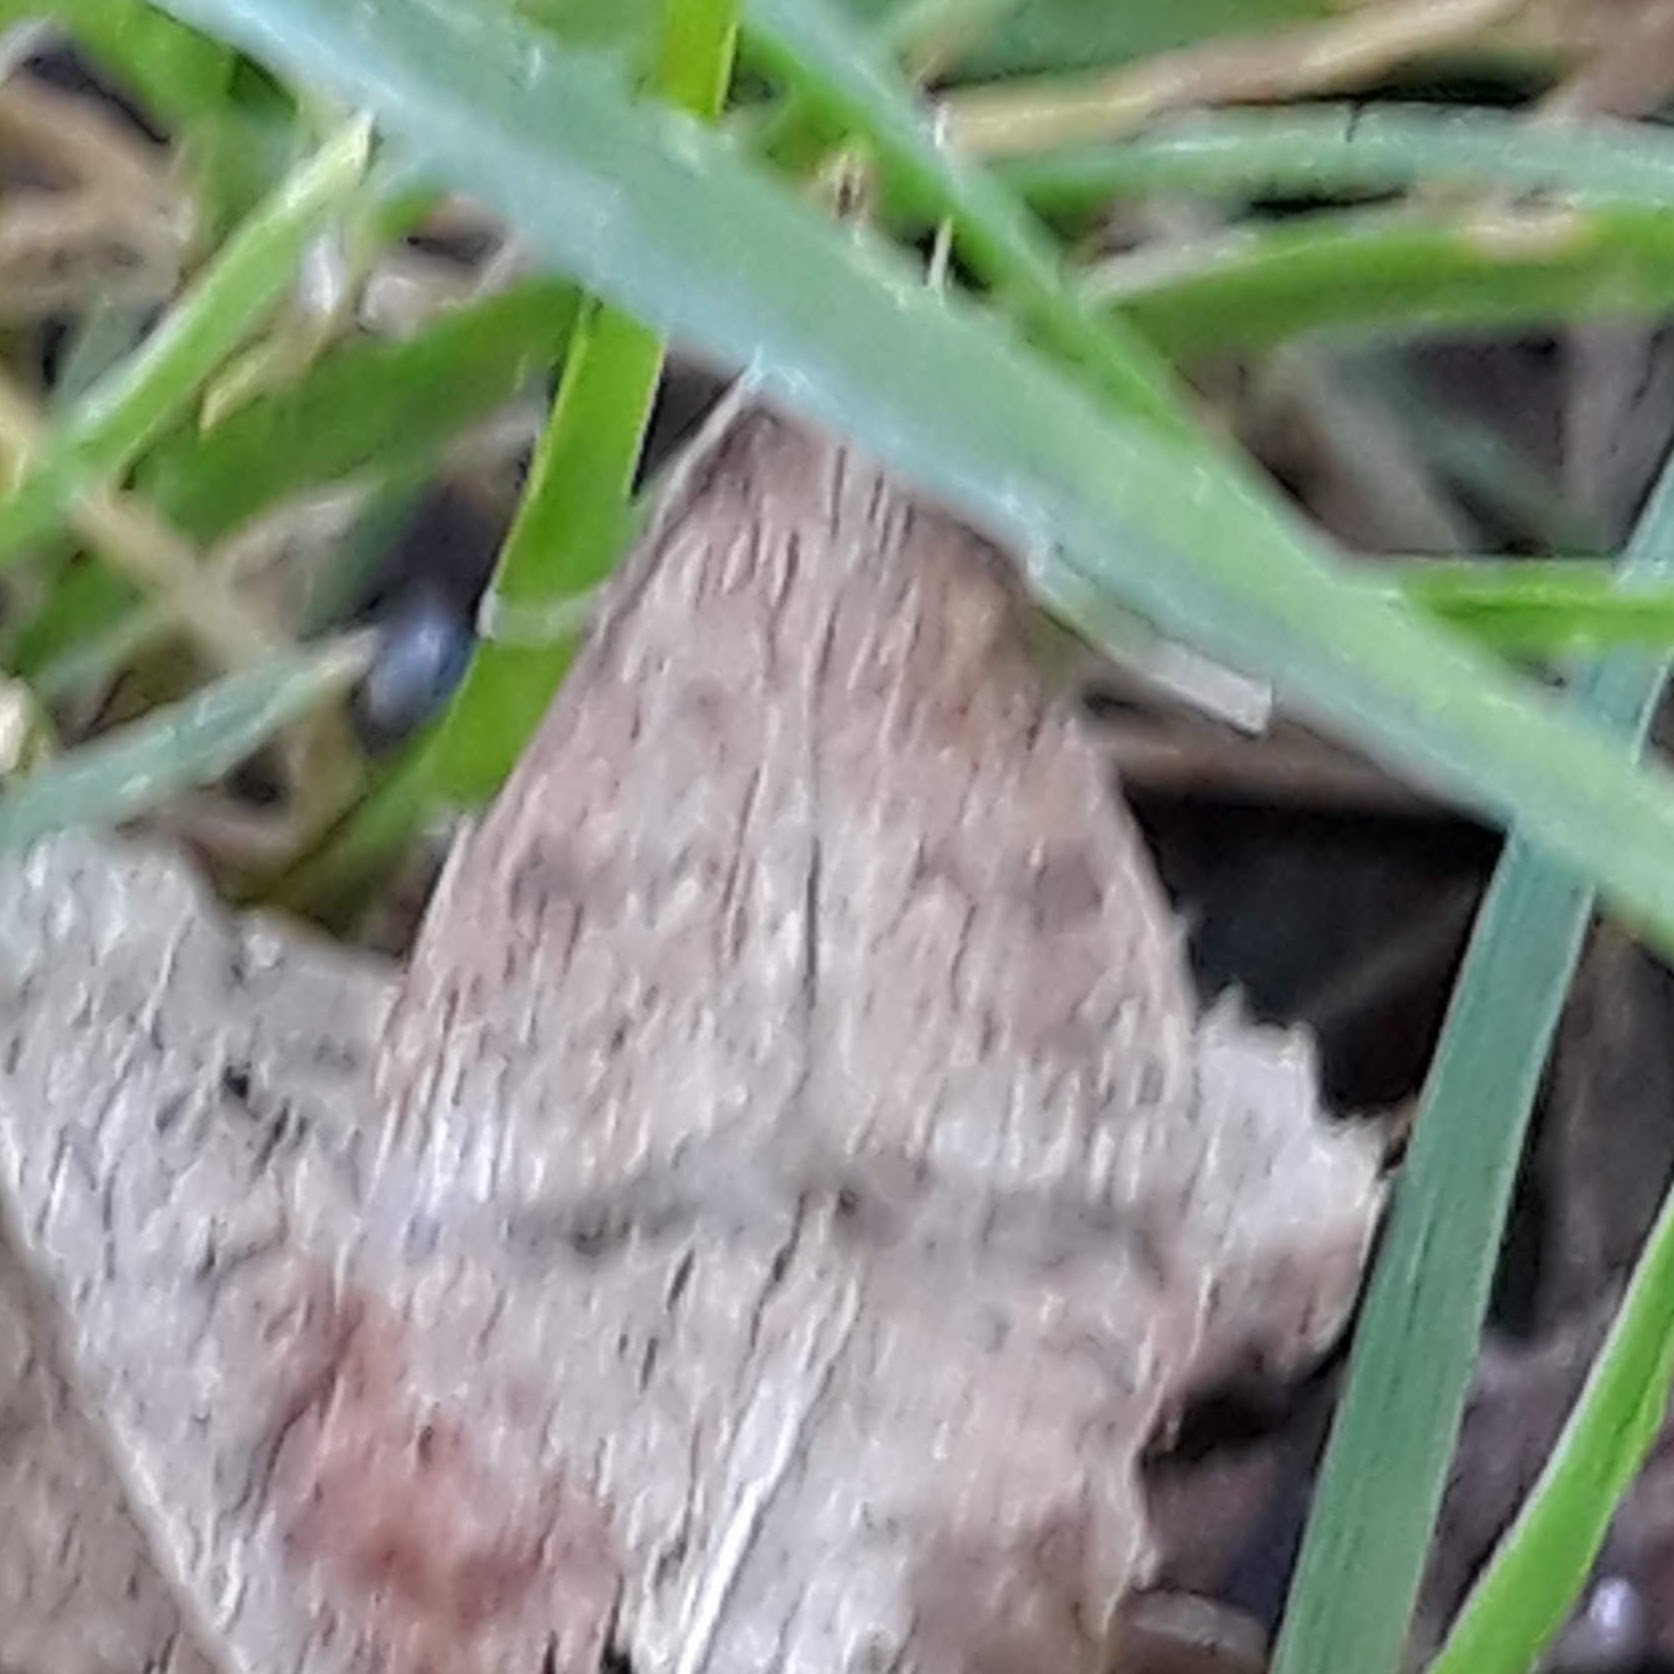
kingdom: Animalia
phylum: Arthropoda
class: Insecta
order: Lepidoptera
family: Crambidae
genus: Udea
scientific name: Udea rubigalis
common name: Celery leaftier moth
